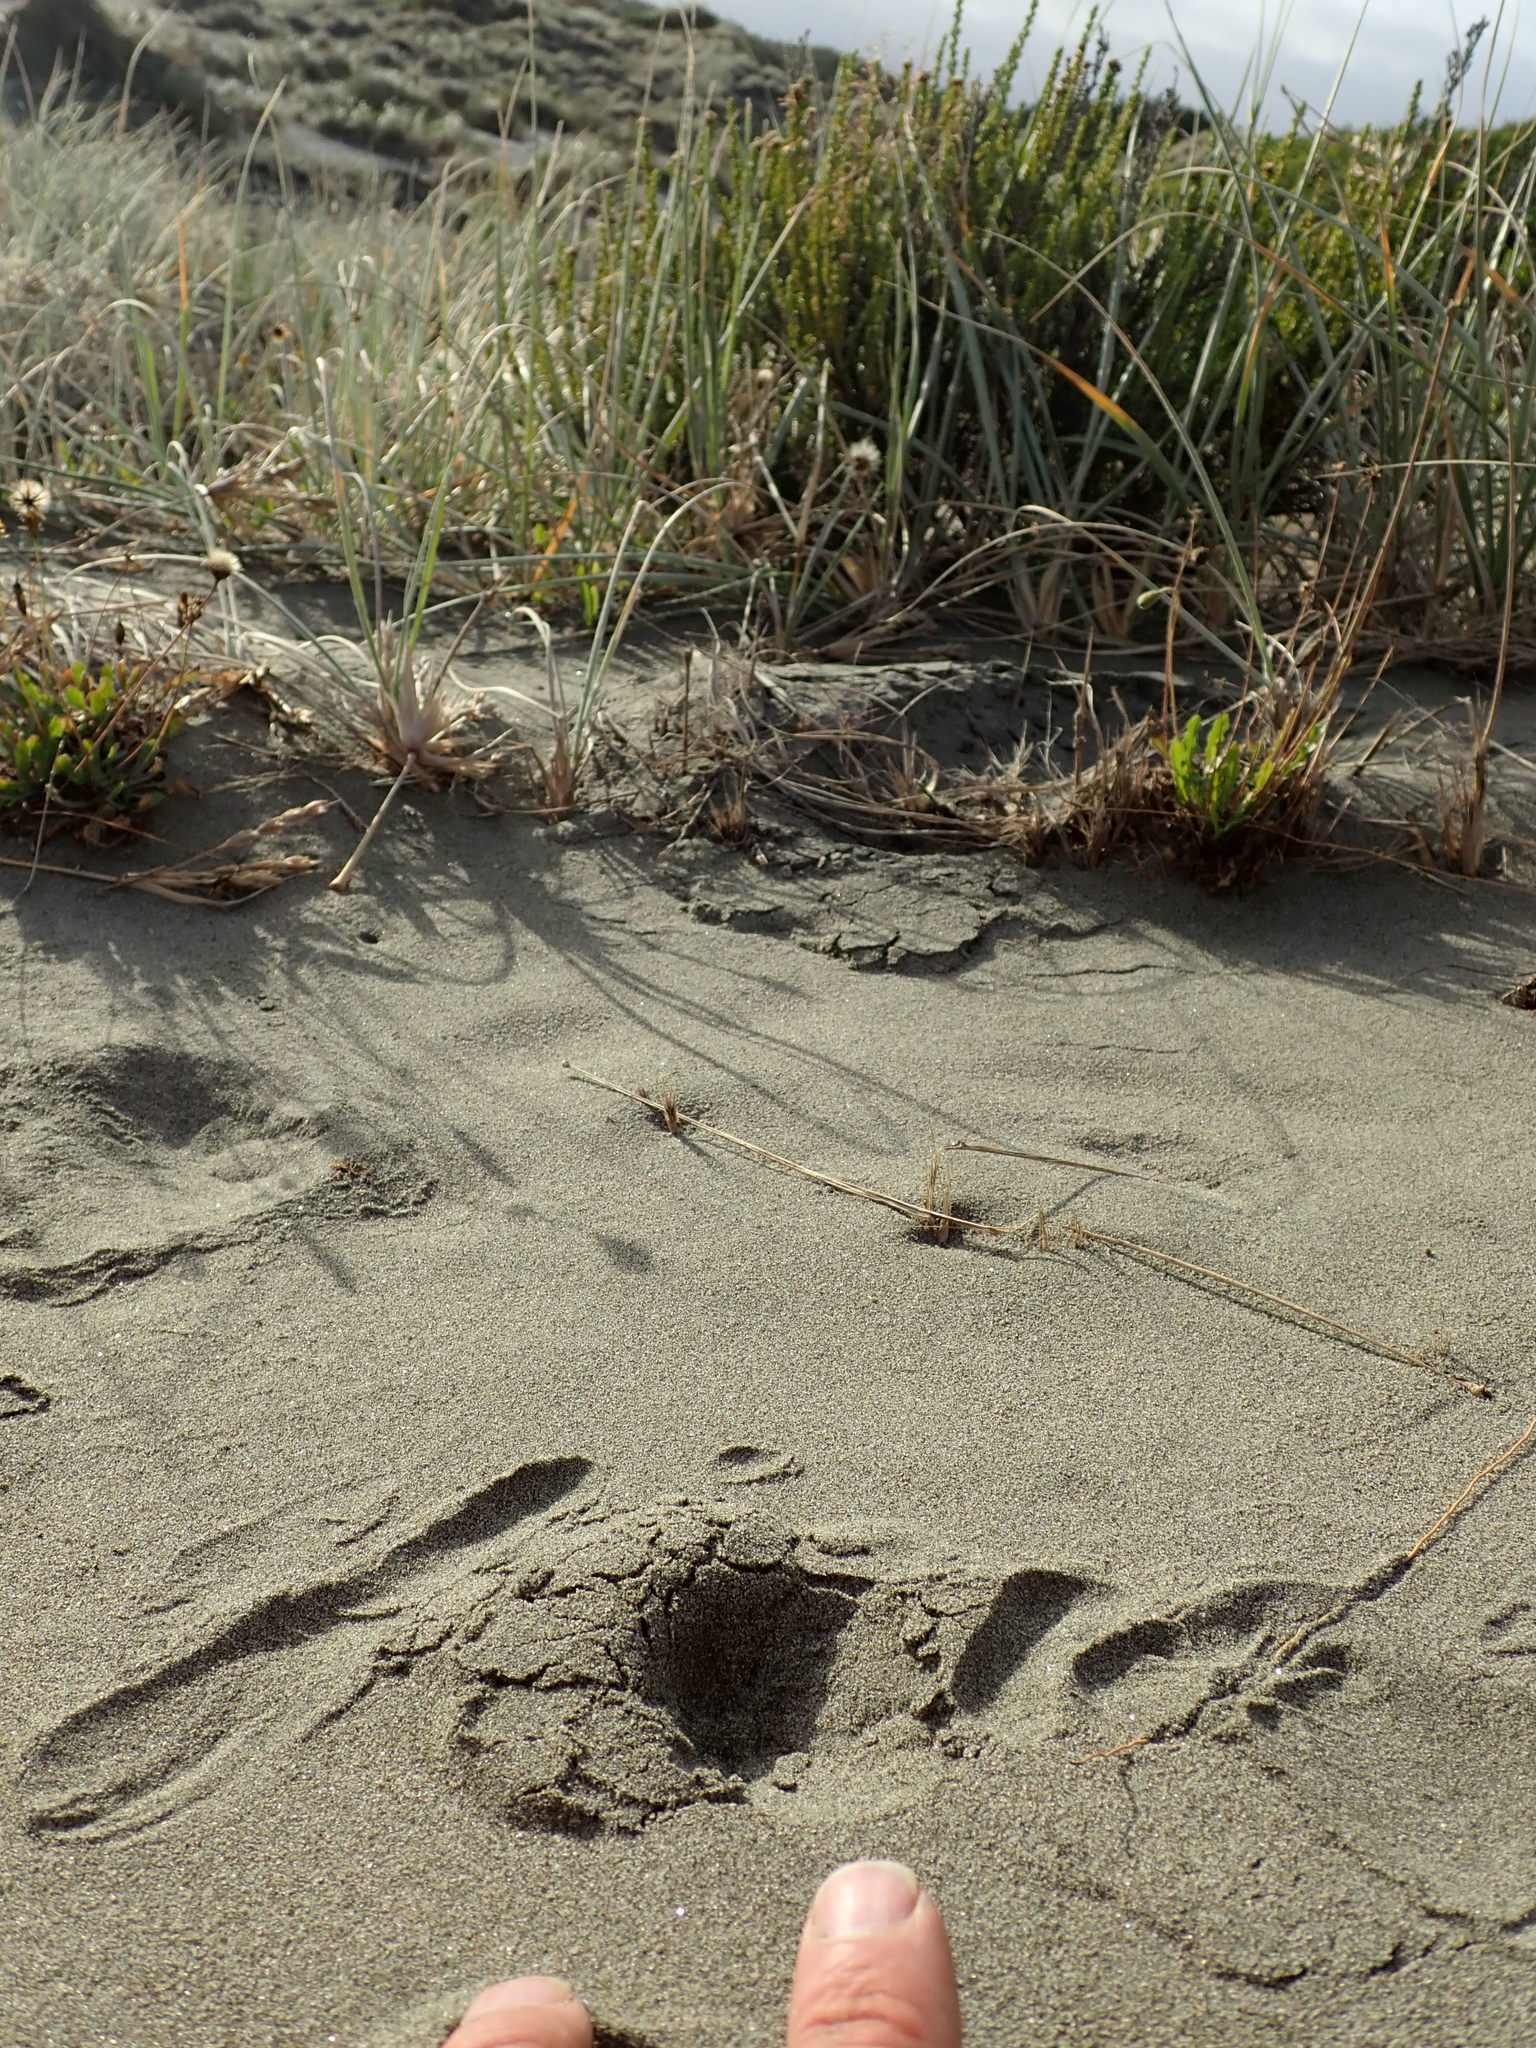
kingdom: Animalia
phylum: Arthropoda
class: Arachnida
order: Araneae
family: Lycosidae
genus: Anoteropsis
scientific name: Anoteropsis litoralis
